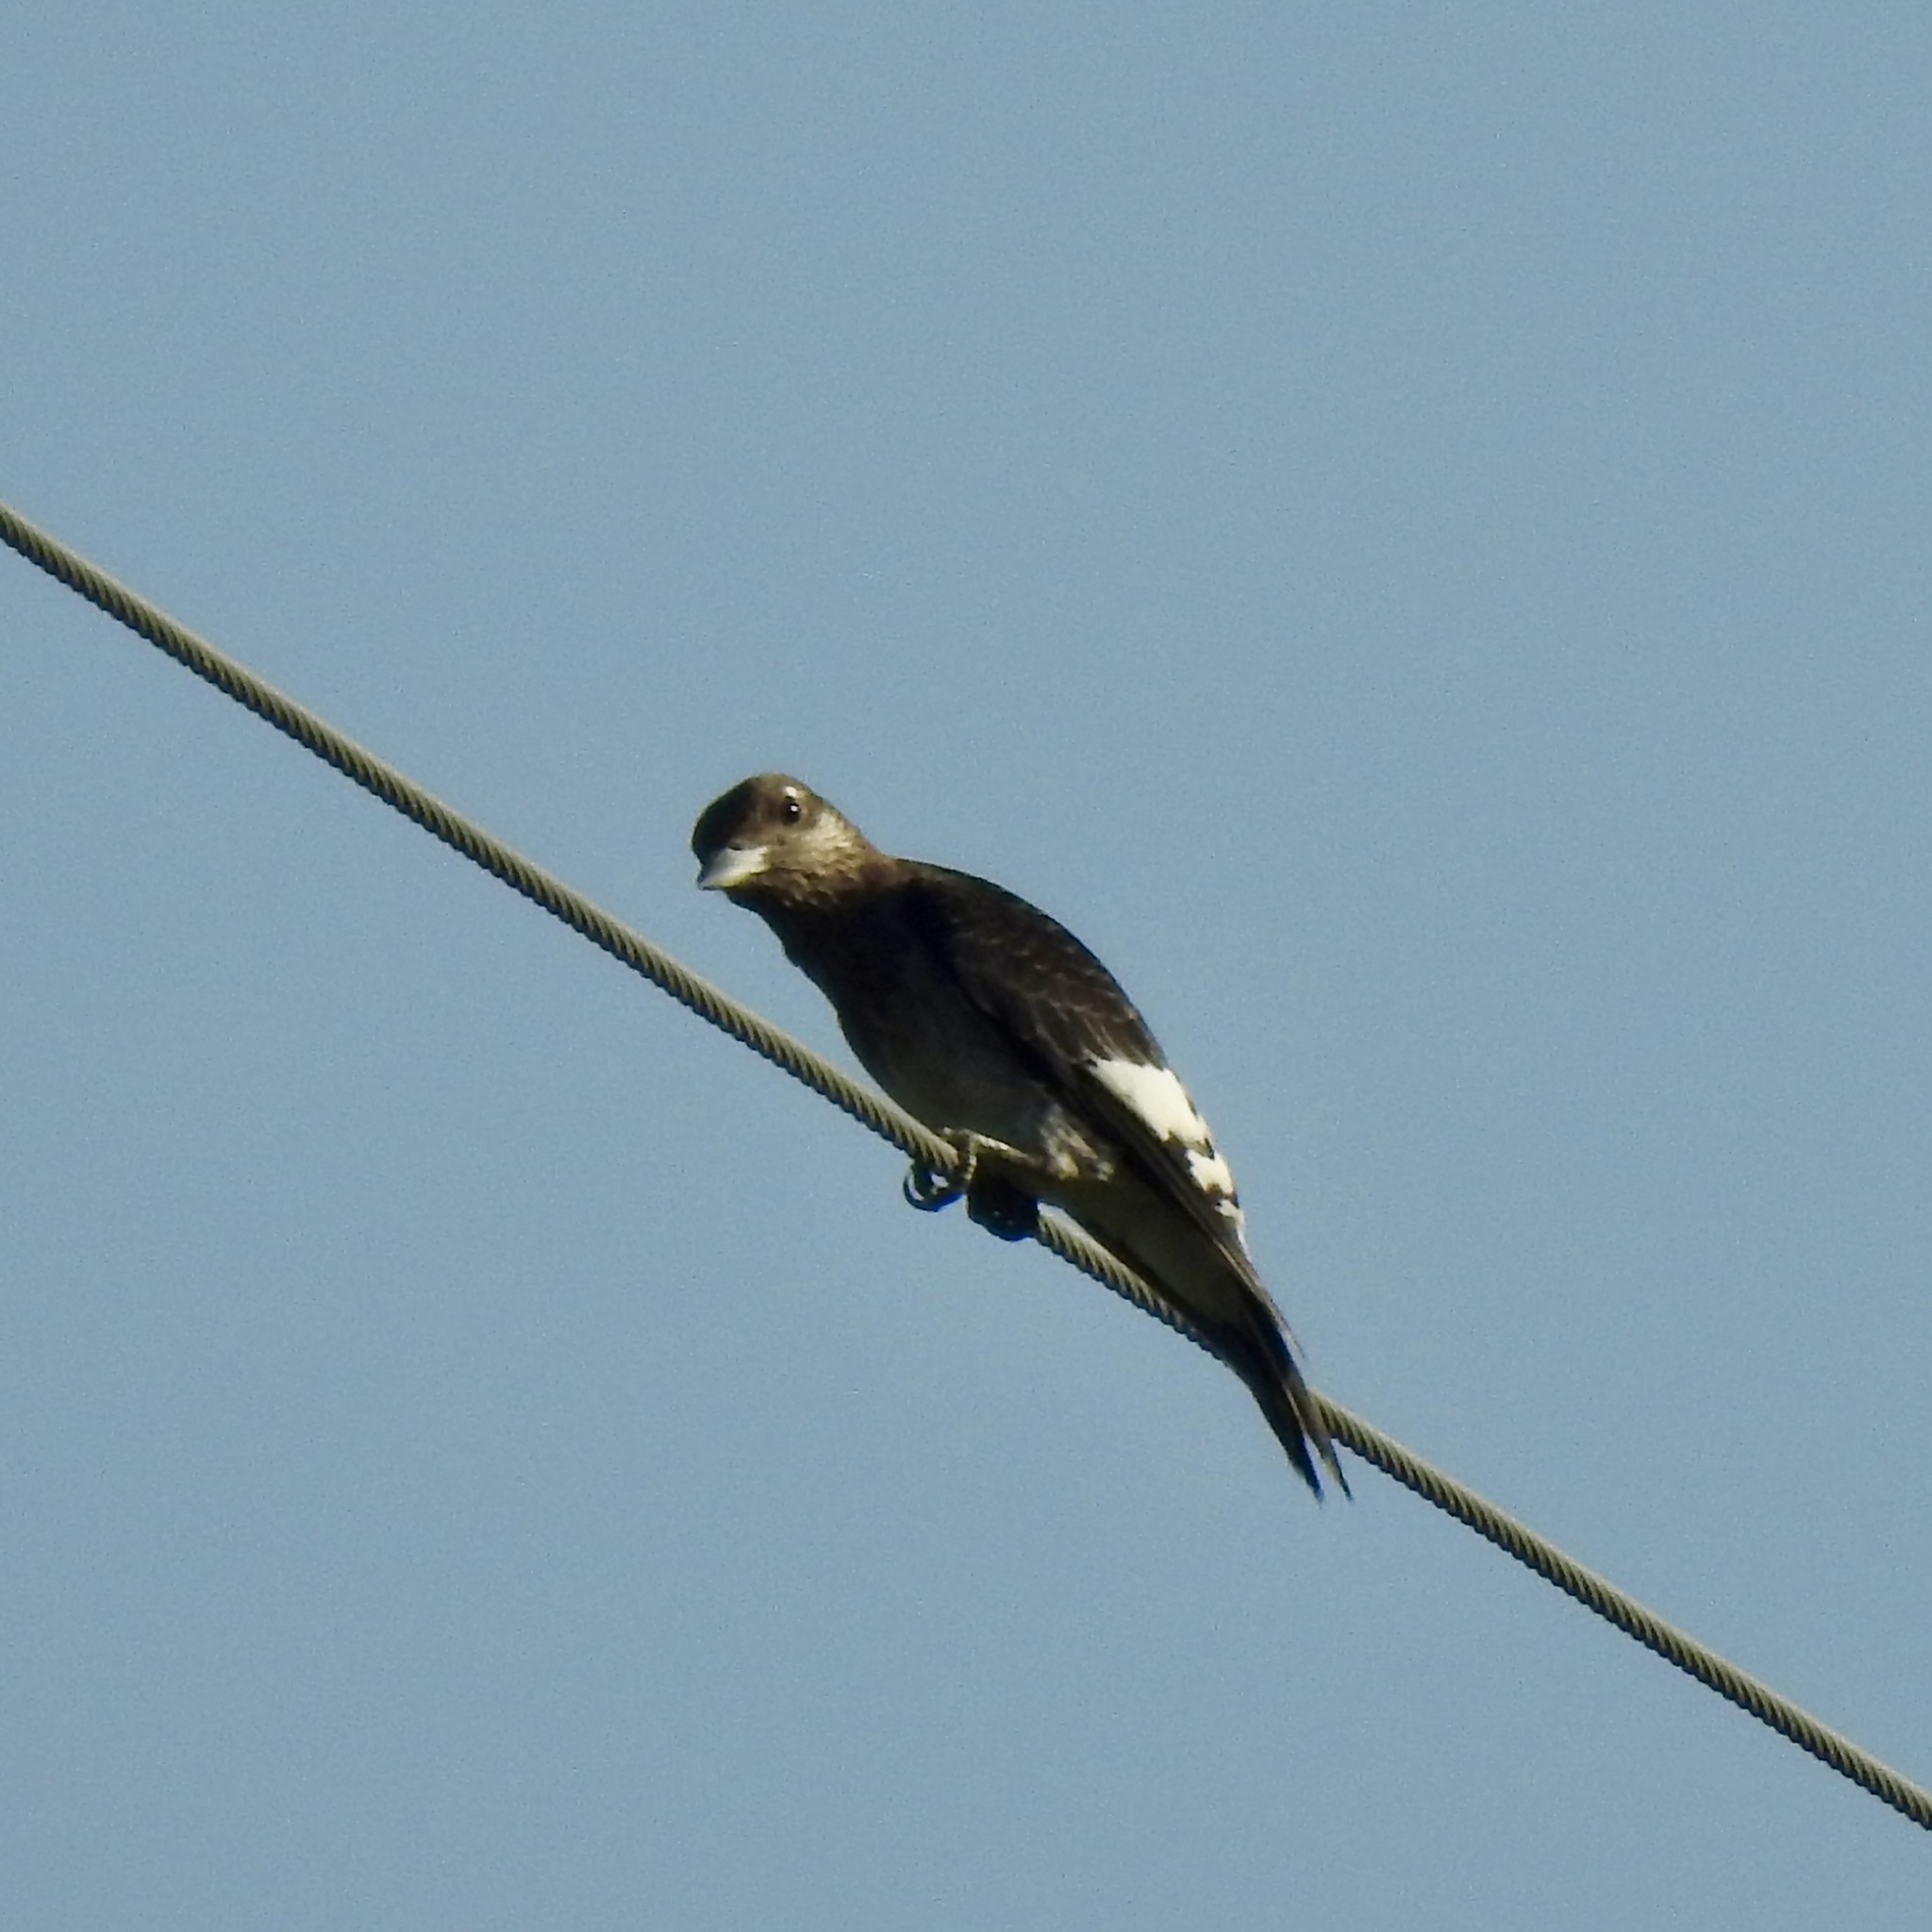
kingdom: Animalia
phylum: Chordata
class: Aves
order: Piciformes
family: Picidae
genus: Melanerpes
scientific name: Melanerpes erythrocephalus
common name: Red-headed woodpecker
